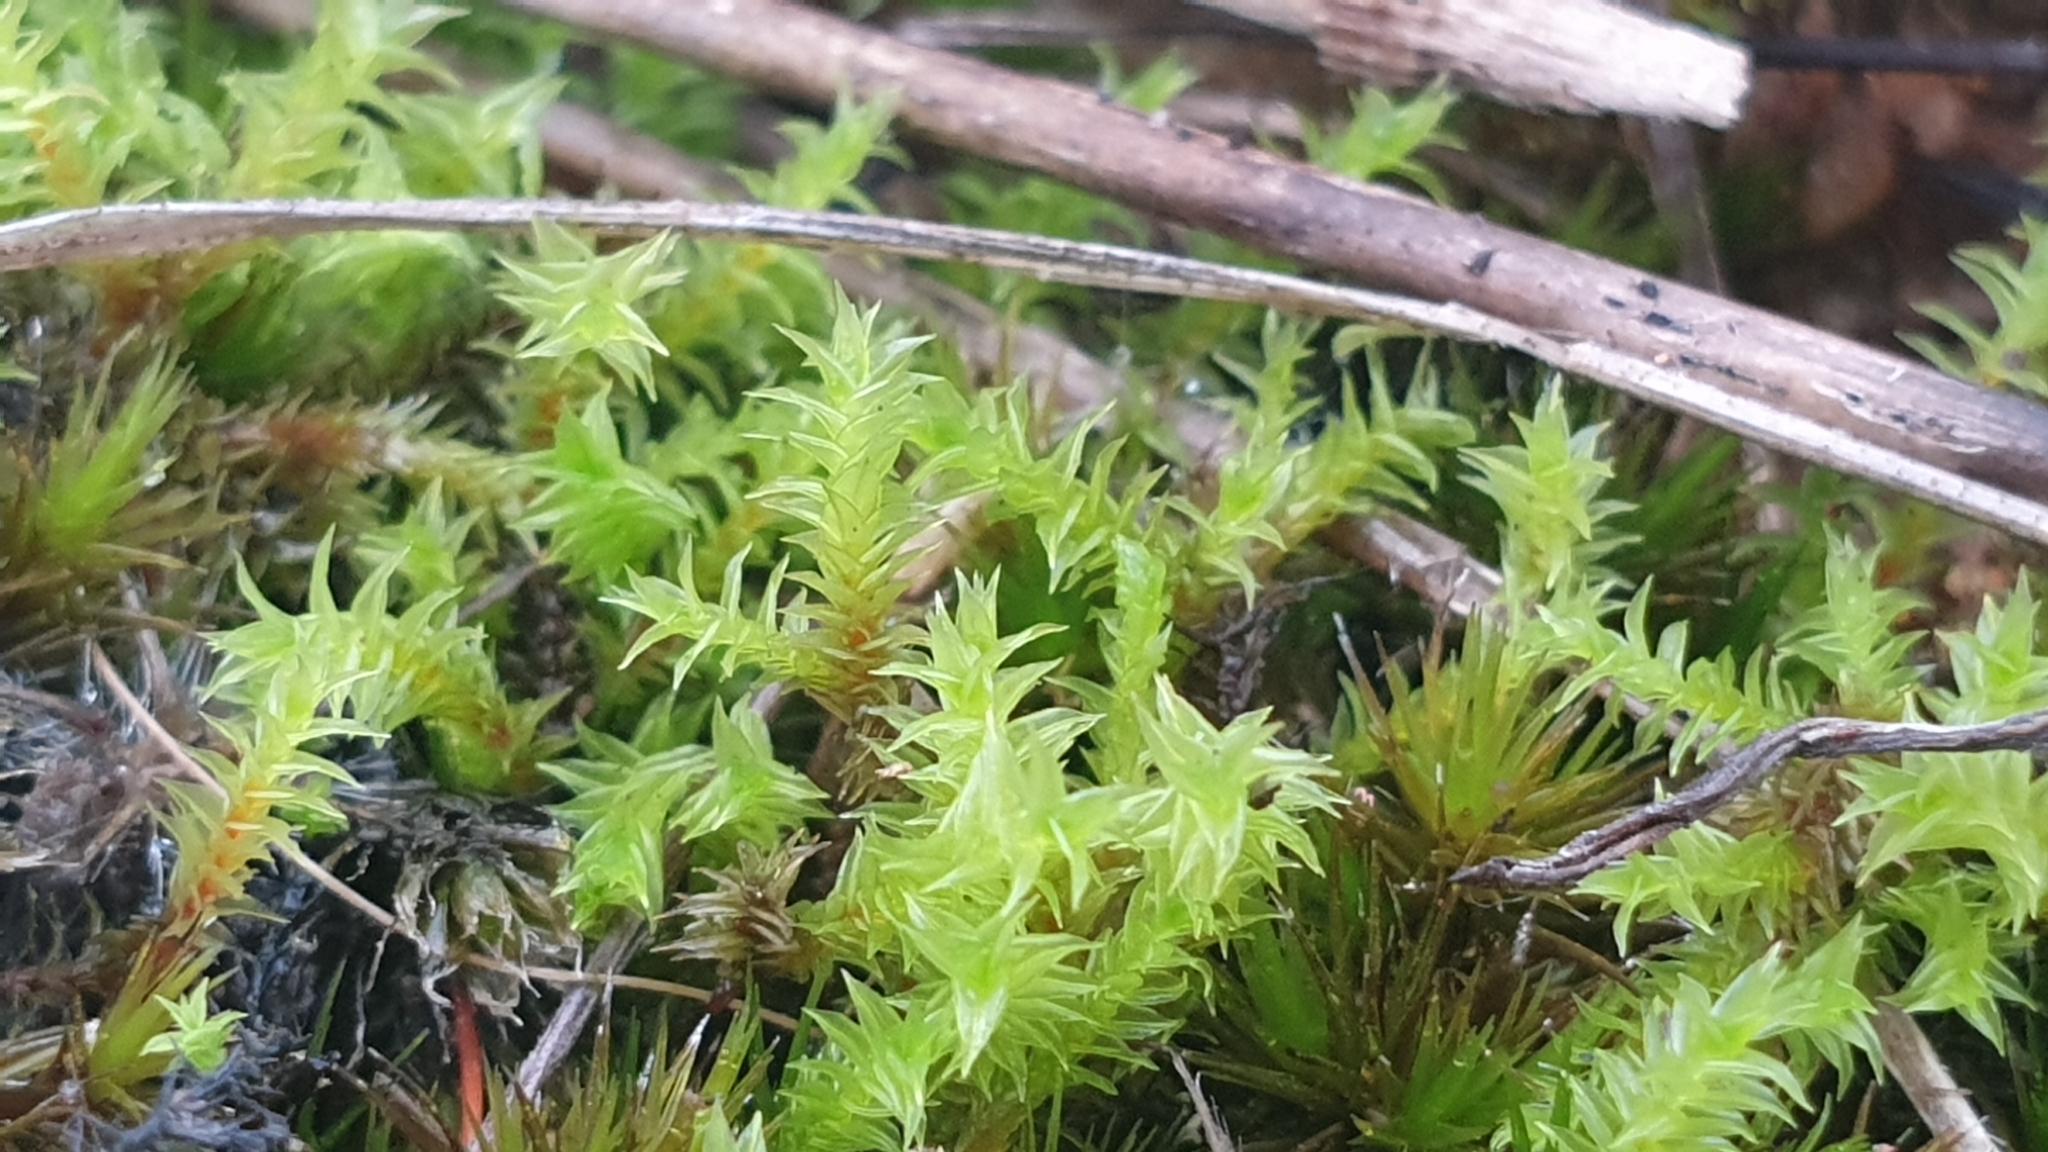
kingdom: Plantae
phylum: Bryophyta
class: Bryopsida
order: Pottiales
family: Pottiaceae
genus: Triquetrella
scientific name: Triquetrella papillata
